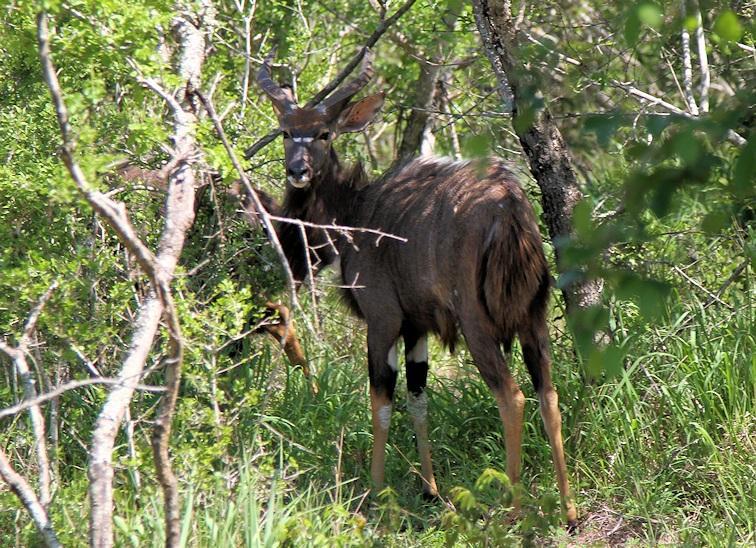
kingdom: Animalia
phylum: Chordata
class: Mammalia
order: Artiodactyla
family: Bovidae
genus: Tragelaphus
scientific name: Tragelaphus angasii
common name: Nyala
